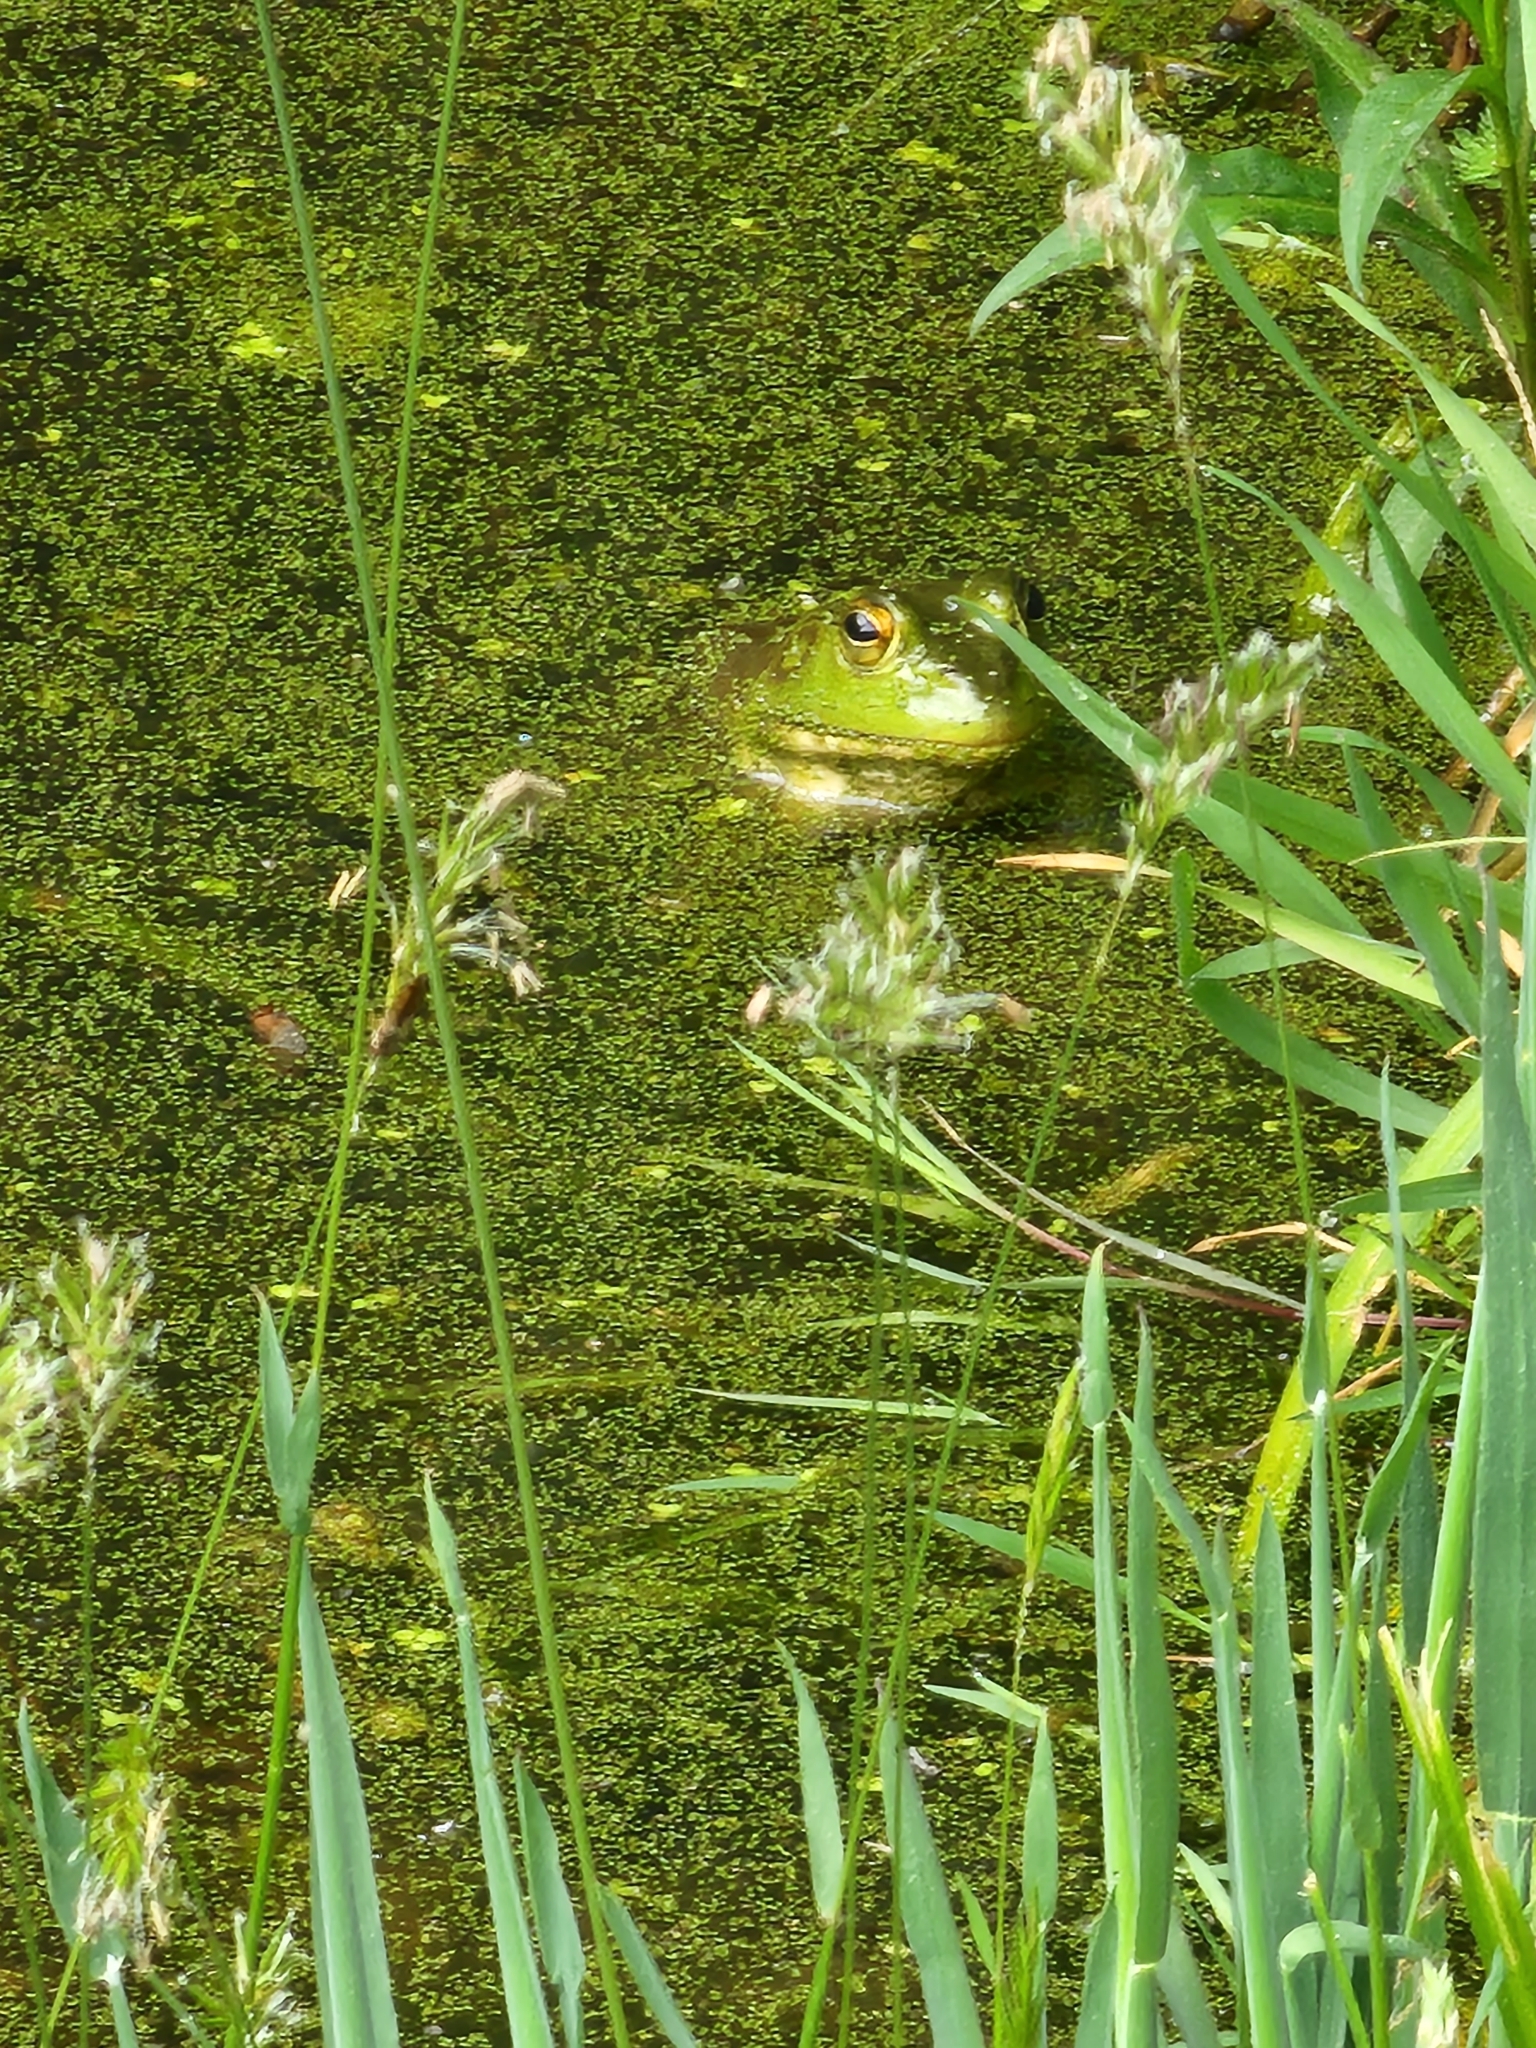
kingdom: Animalia
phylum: Chordata
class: Amphibia
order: Anura
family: Ranidae
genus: Lithobates
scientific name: Lithobates catesbeianus
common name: American bullfrog
